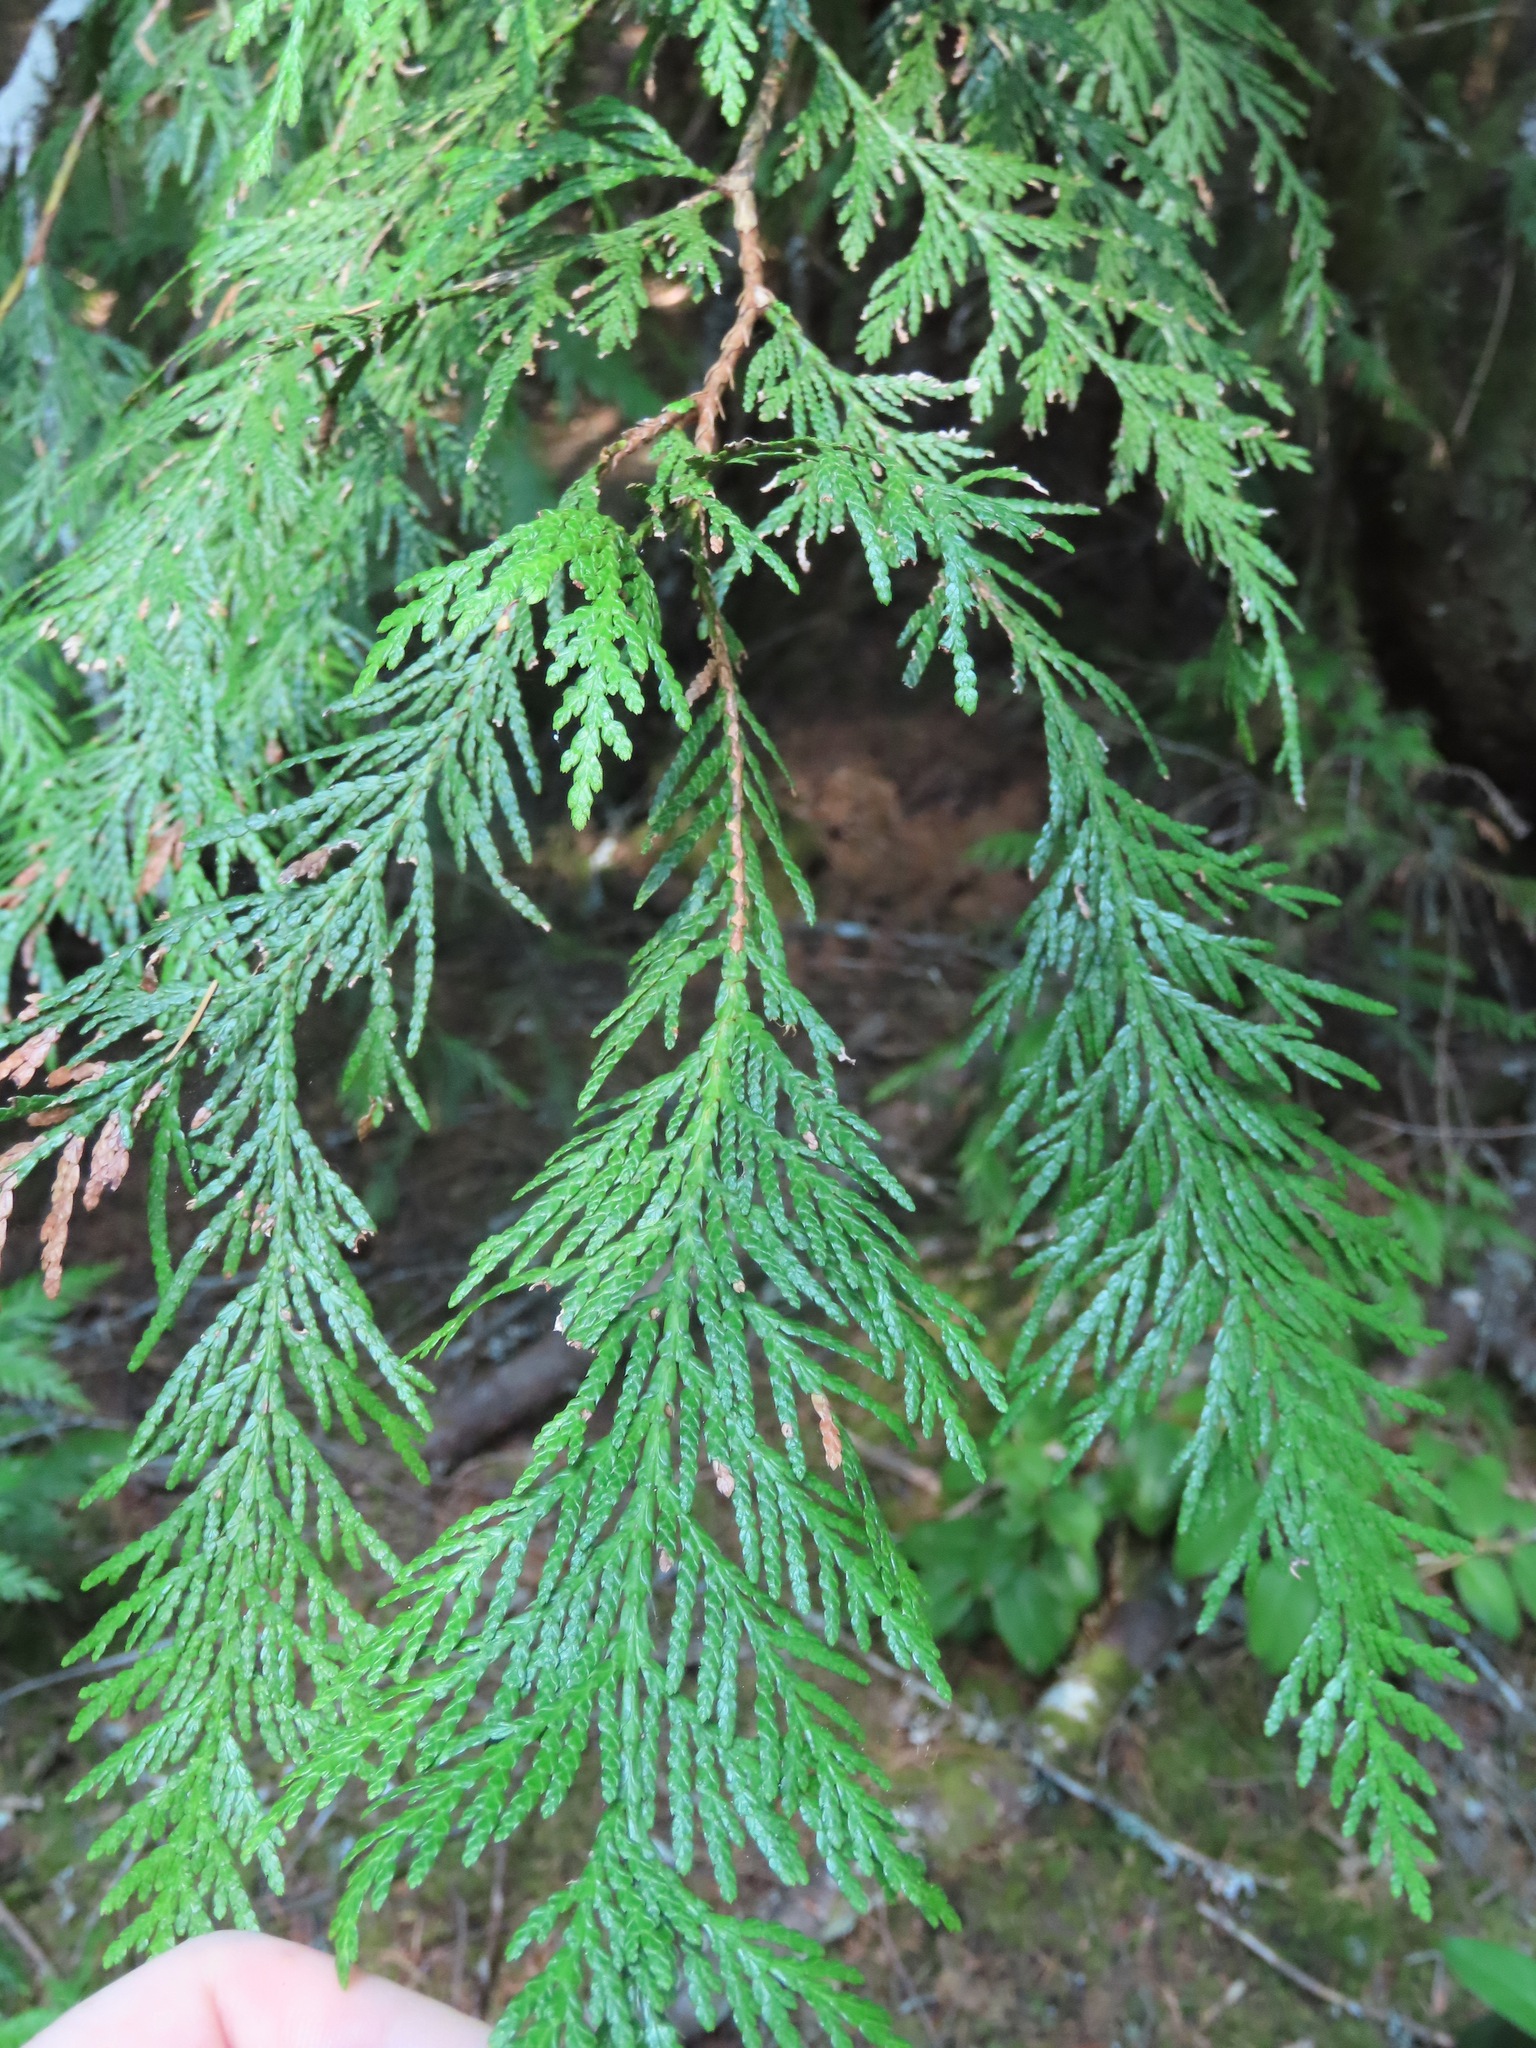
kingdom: Plantae
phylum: Tracheophyta
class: Pinopsida
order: Pinales
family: Cupressaceae
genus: Thuja
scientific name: Thuja plicata
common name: Western red-cedar
